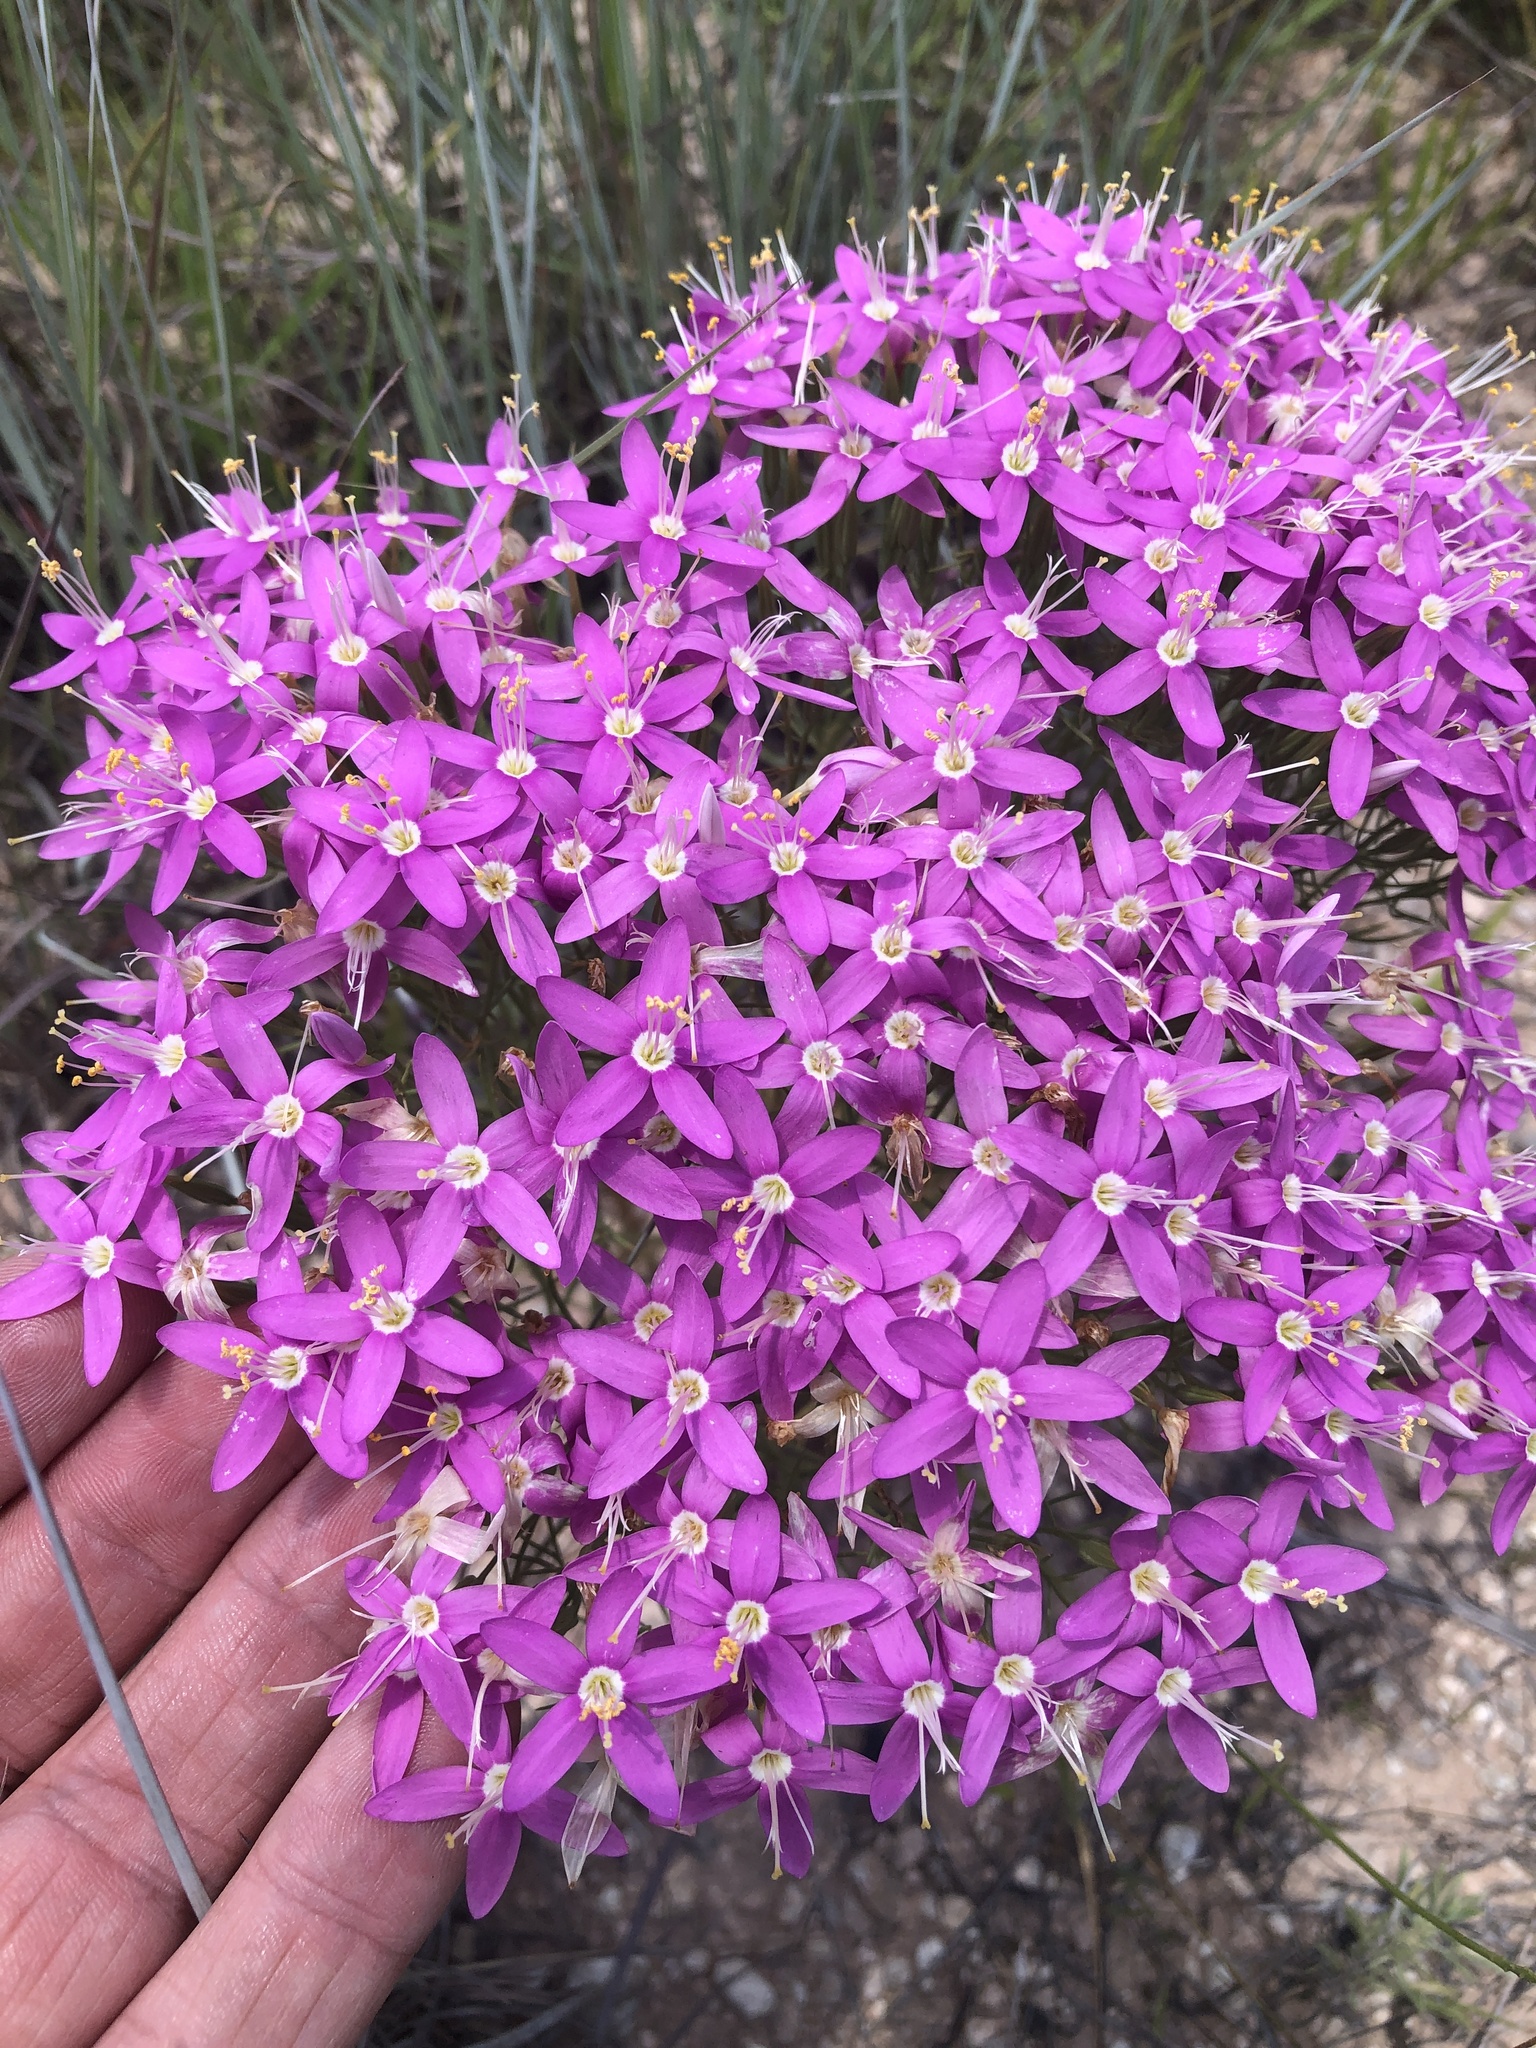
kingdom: Plantae
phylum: Tracheophyta
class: Magnoliopsida
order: Gentianales
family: Gentianaceae
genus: Zeltnera
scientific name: Zeltnera beyrichii
